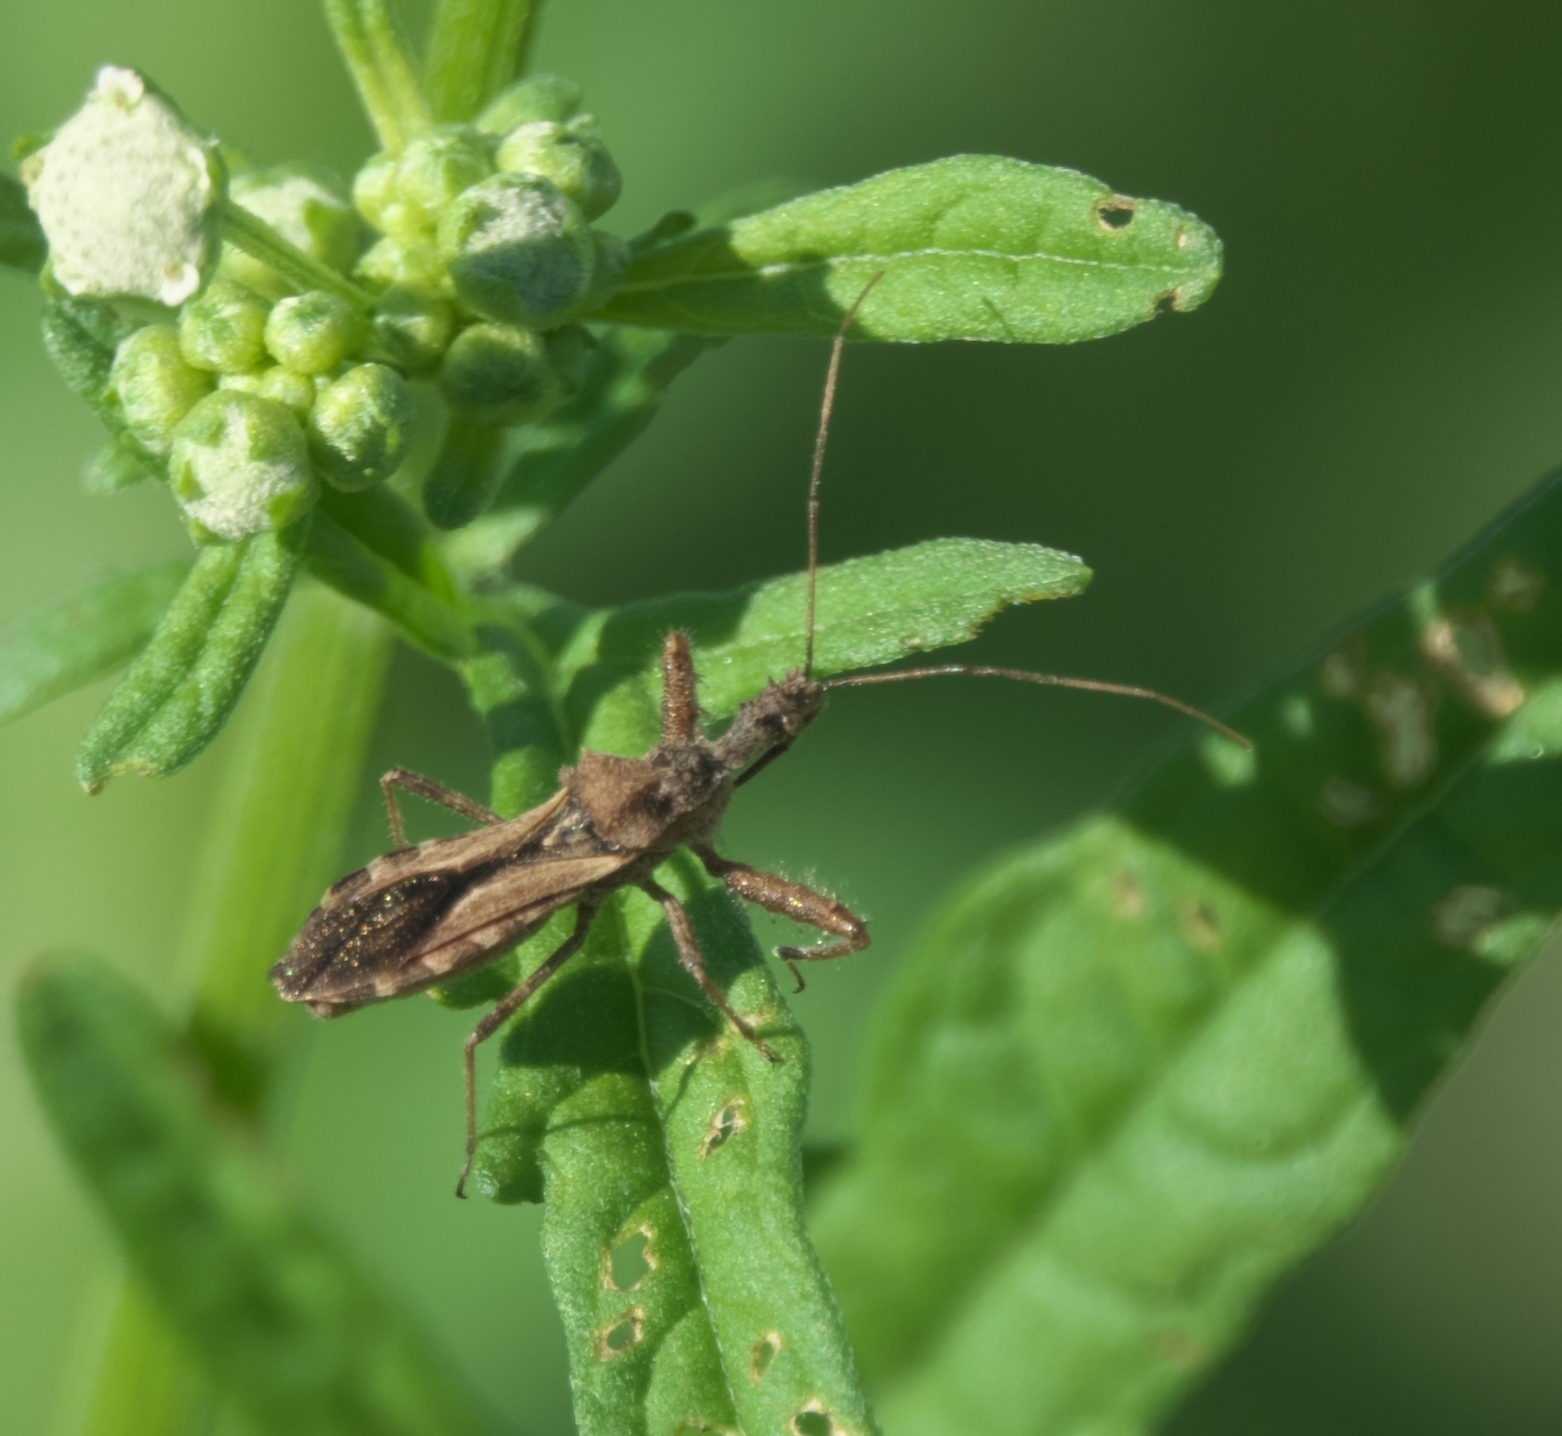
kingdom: Animalia
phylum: Arthropoda
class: Insecta
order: Hemiptera
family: Reduviidae
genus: Sinea
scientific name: Sinea diadema
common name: Spined assassin bug
